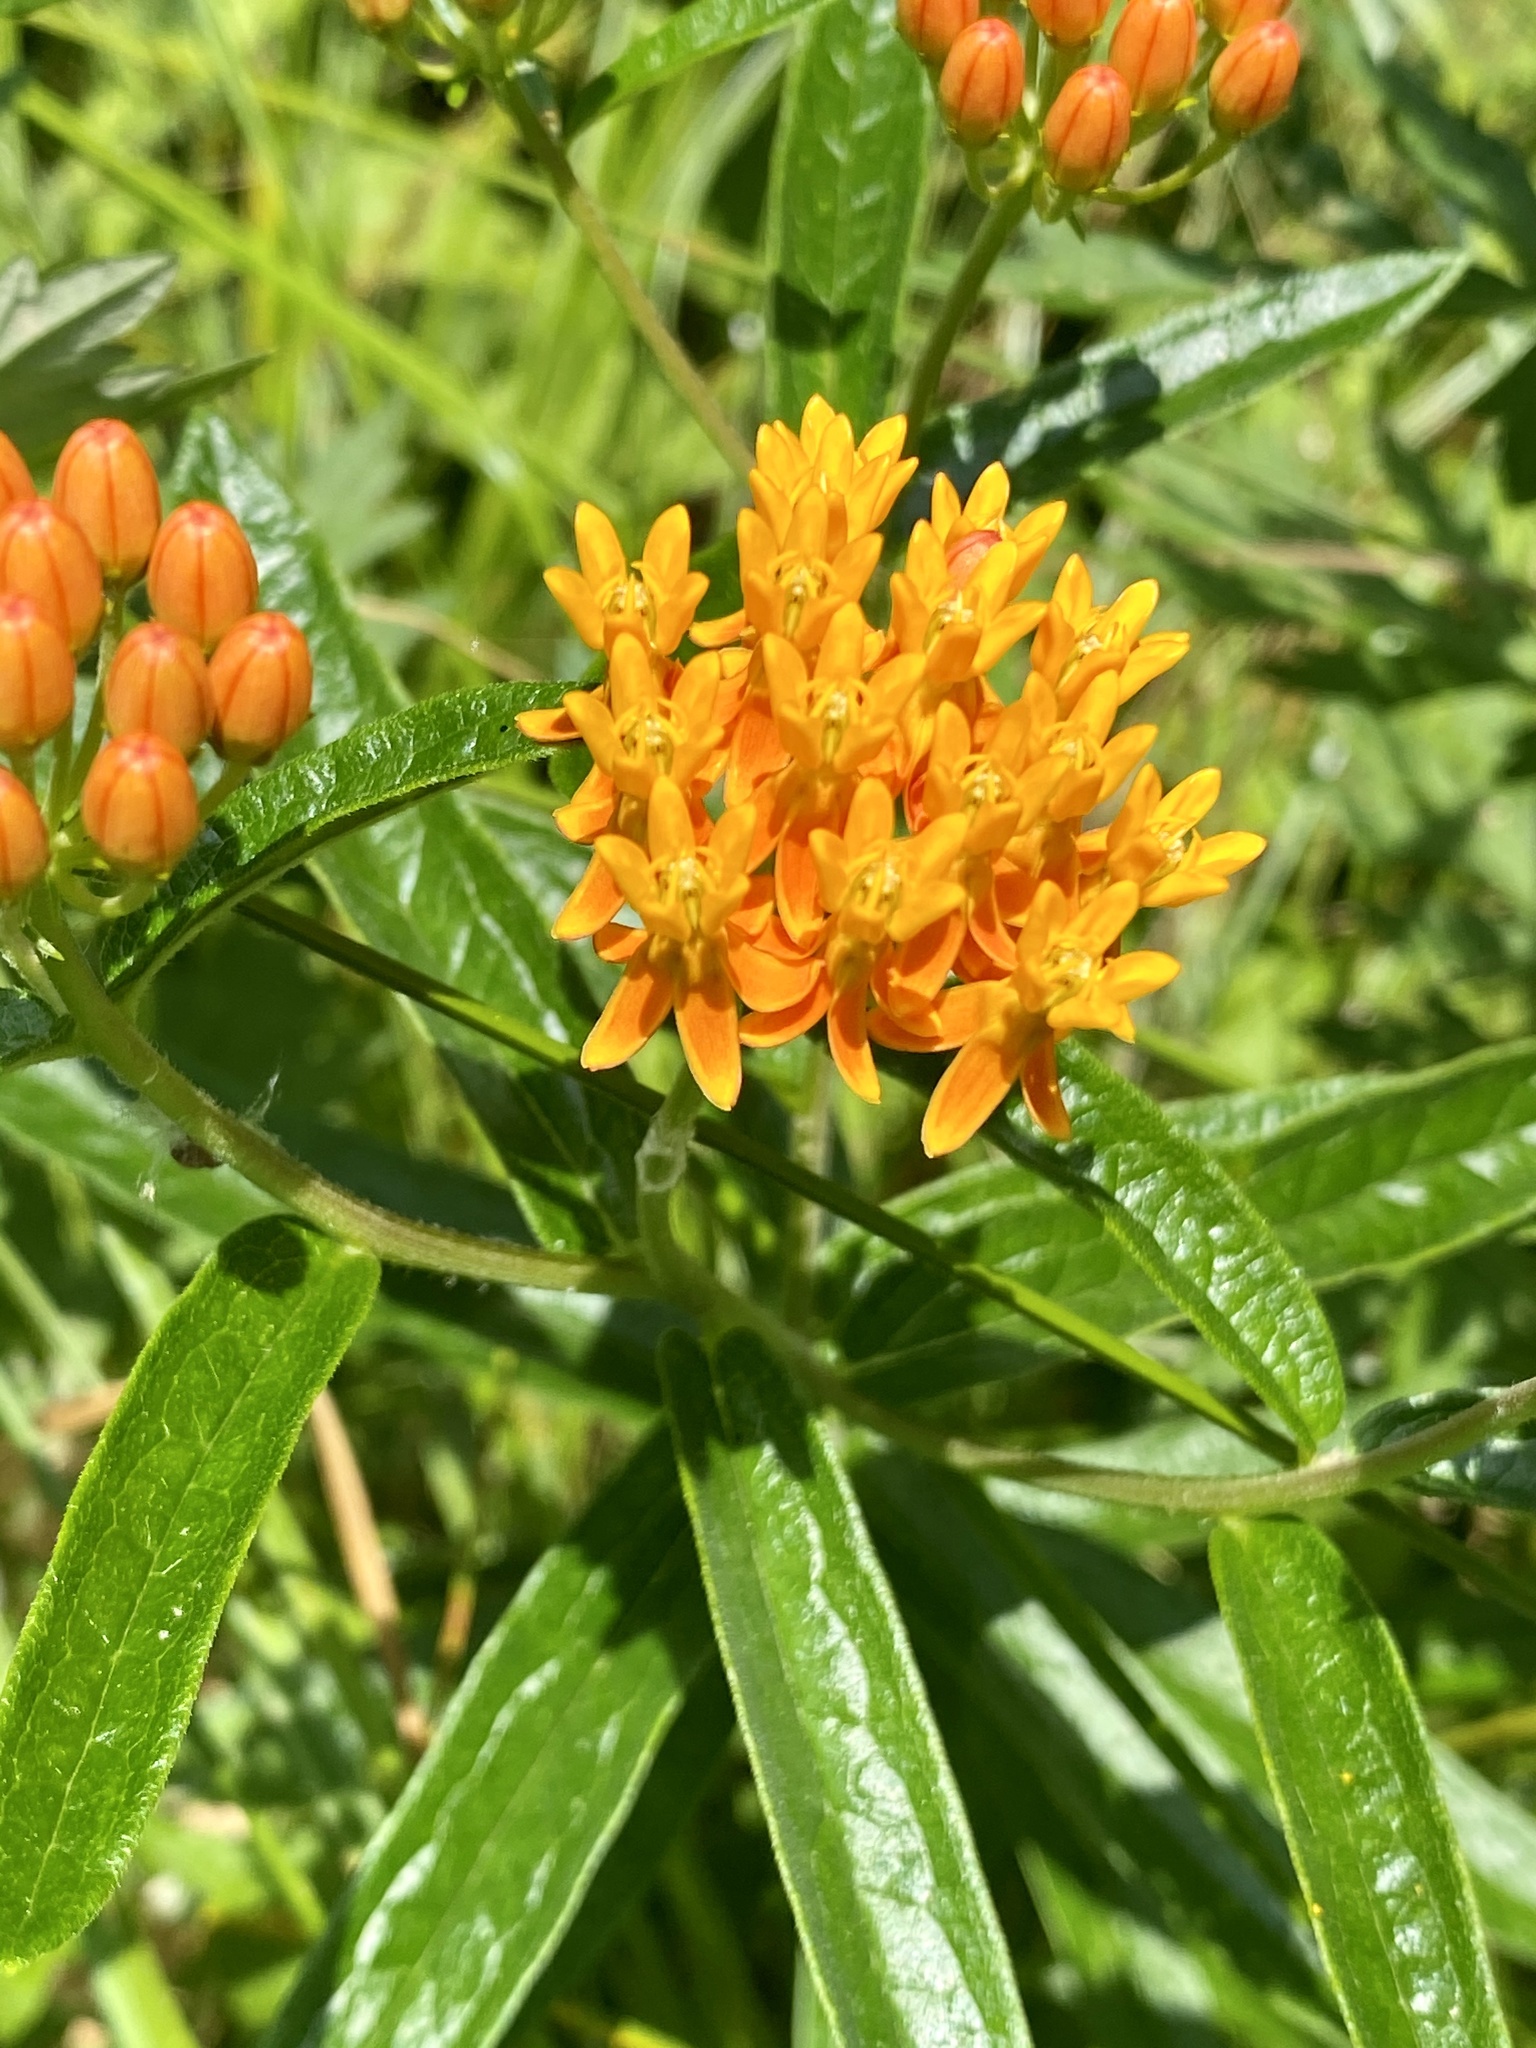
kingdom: Plantae
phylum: Tracheophyta
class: Magnoliopsida
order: Gentianales
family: Apocynaceae
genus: Asclepias
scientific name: Asclepias tuberosa
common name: Butterfly milkweed
